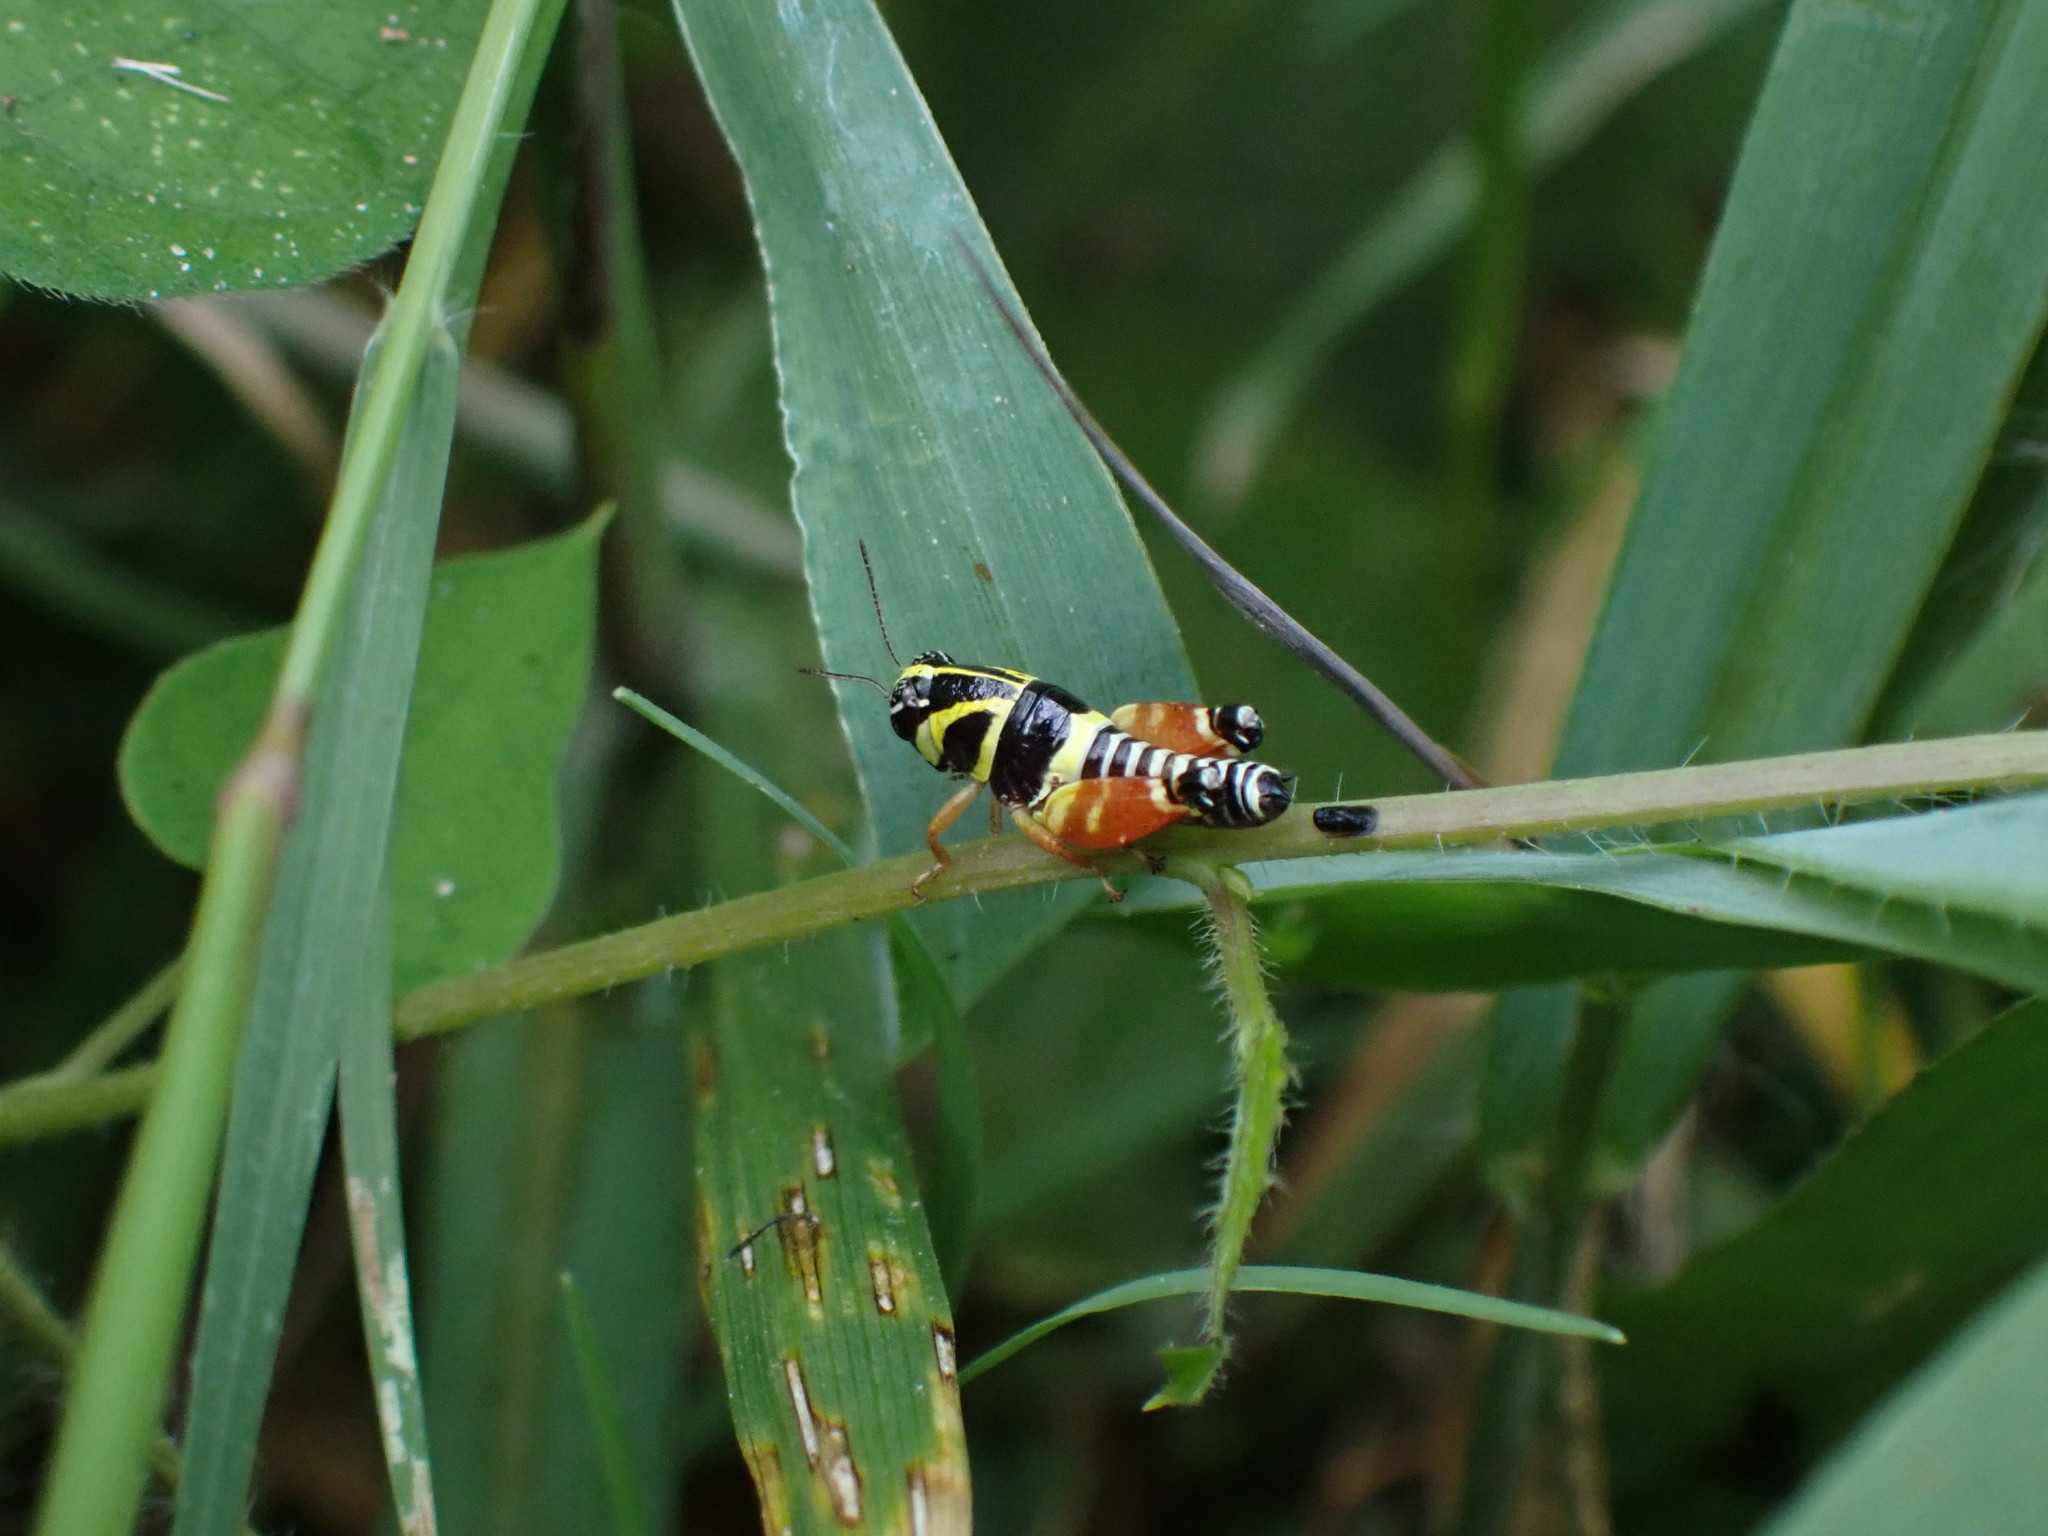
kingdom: Animalia
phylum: Arthropoda
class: Insecta
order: Orthoptera
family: Acrididae
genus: Aidemona
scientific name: Aidemona azteca
